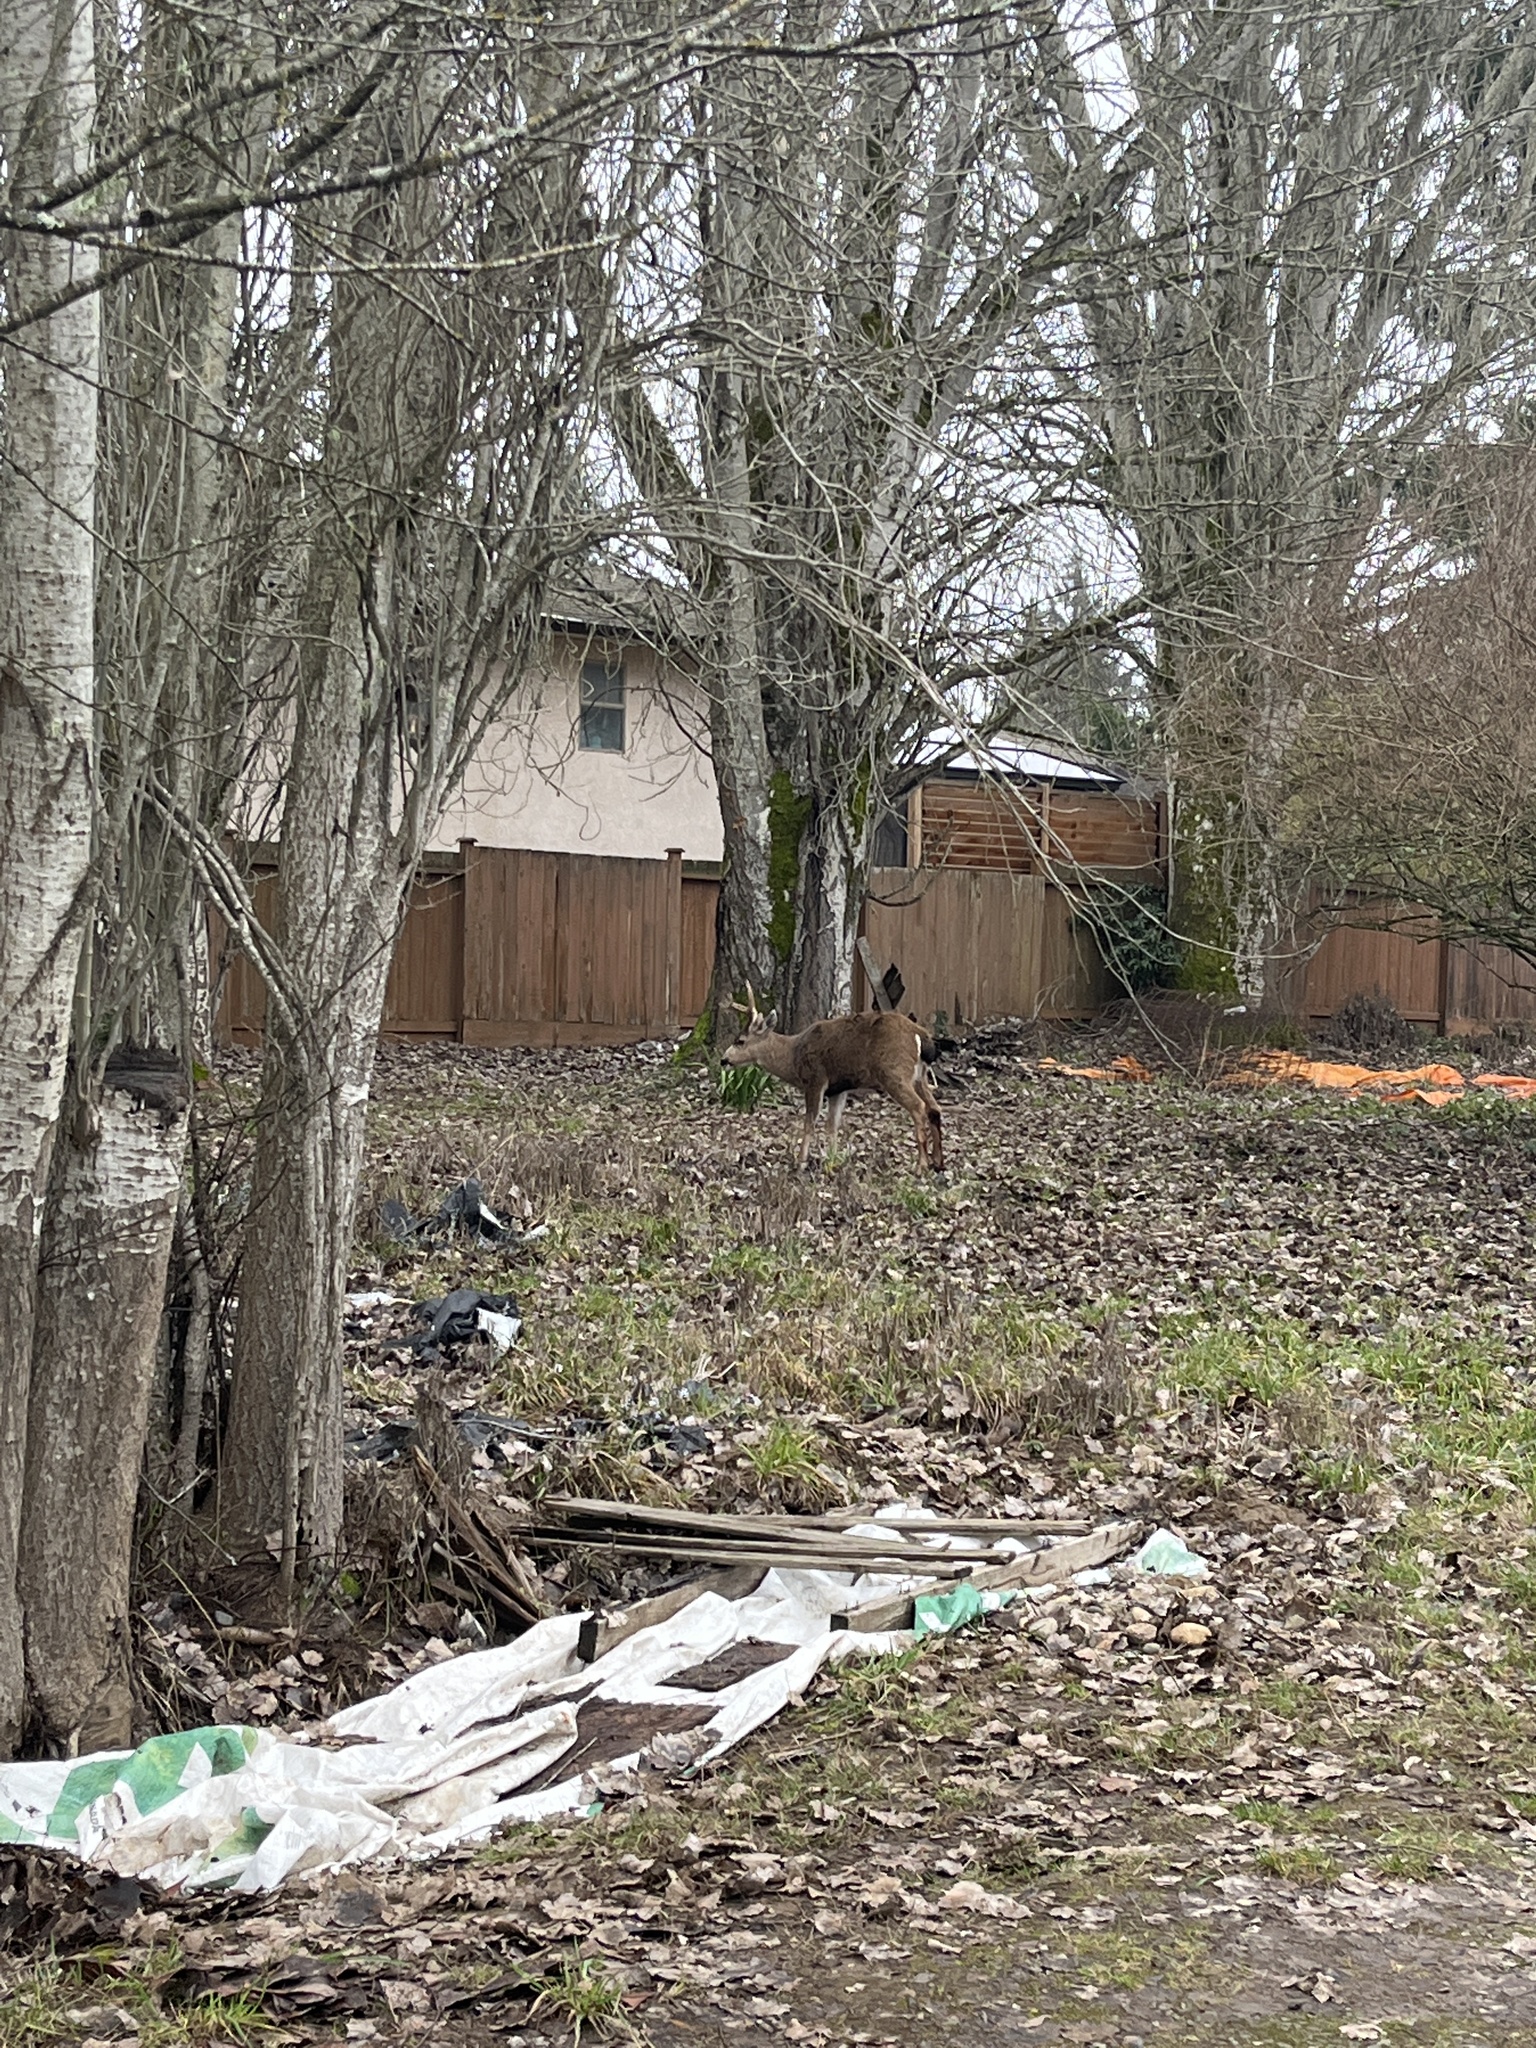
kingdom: Animalia
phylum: Chordata
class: Mammalia
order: Artiodactyla
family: Cervidae
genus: Odocoileus
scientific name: Odocoileus hemionus
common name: Mule deer
